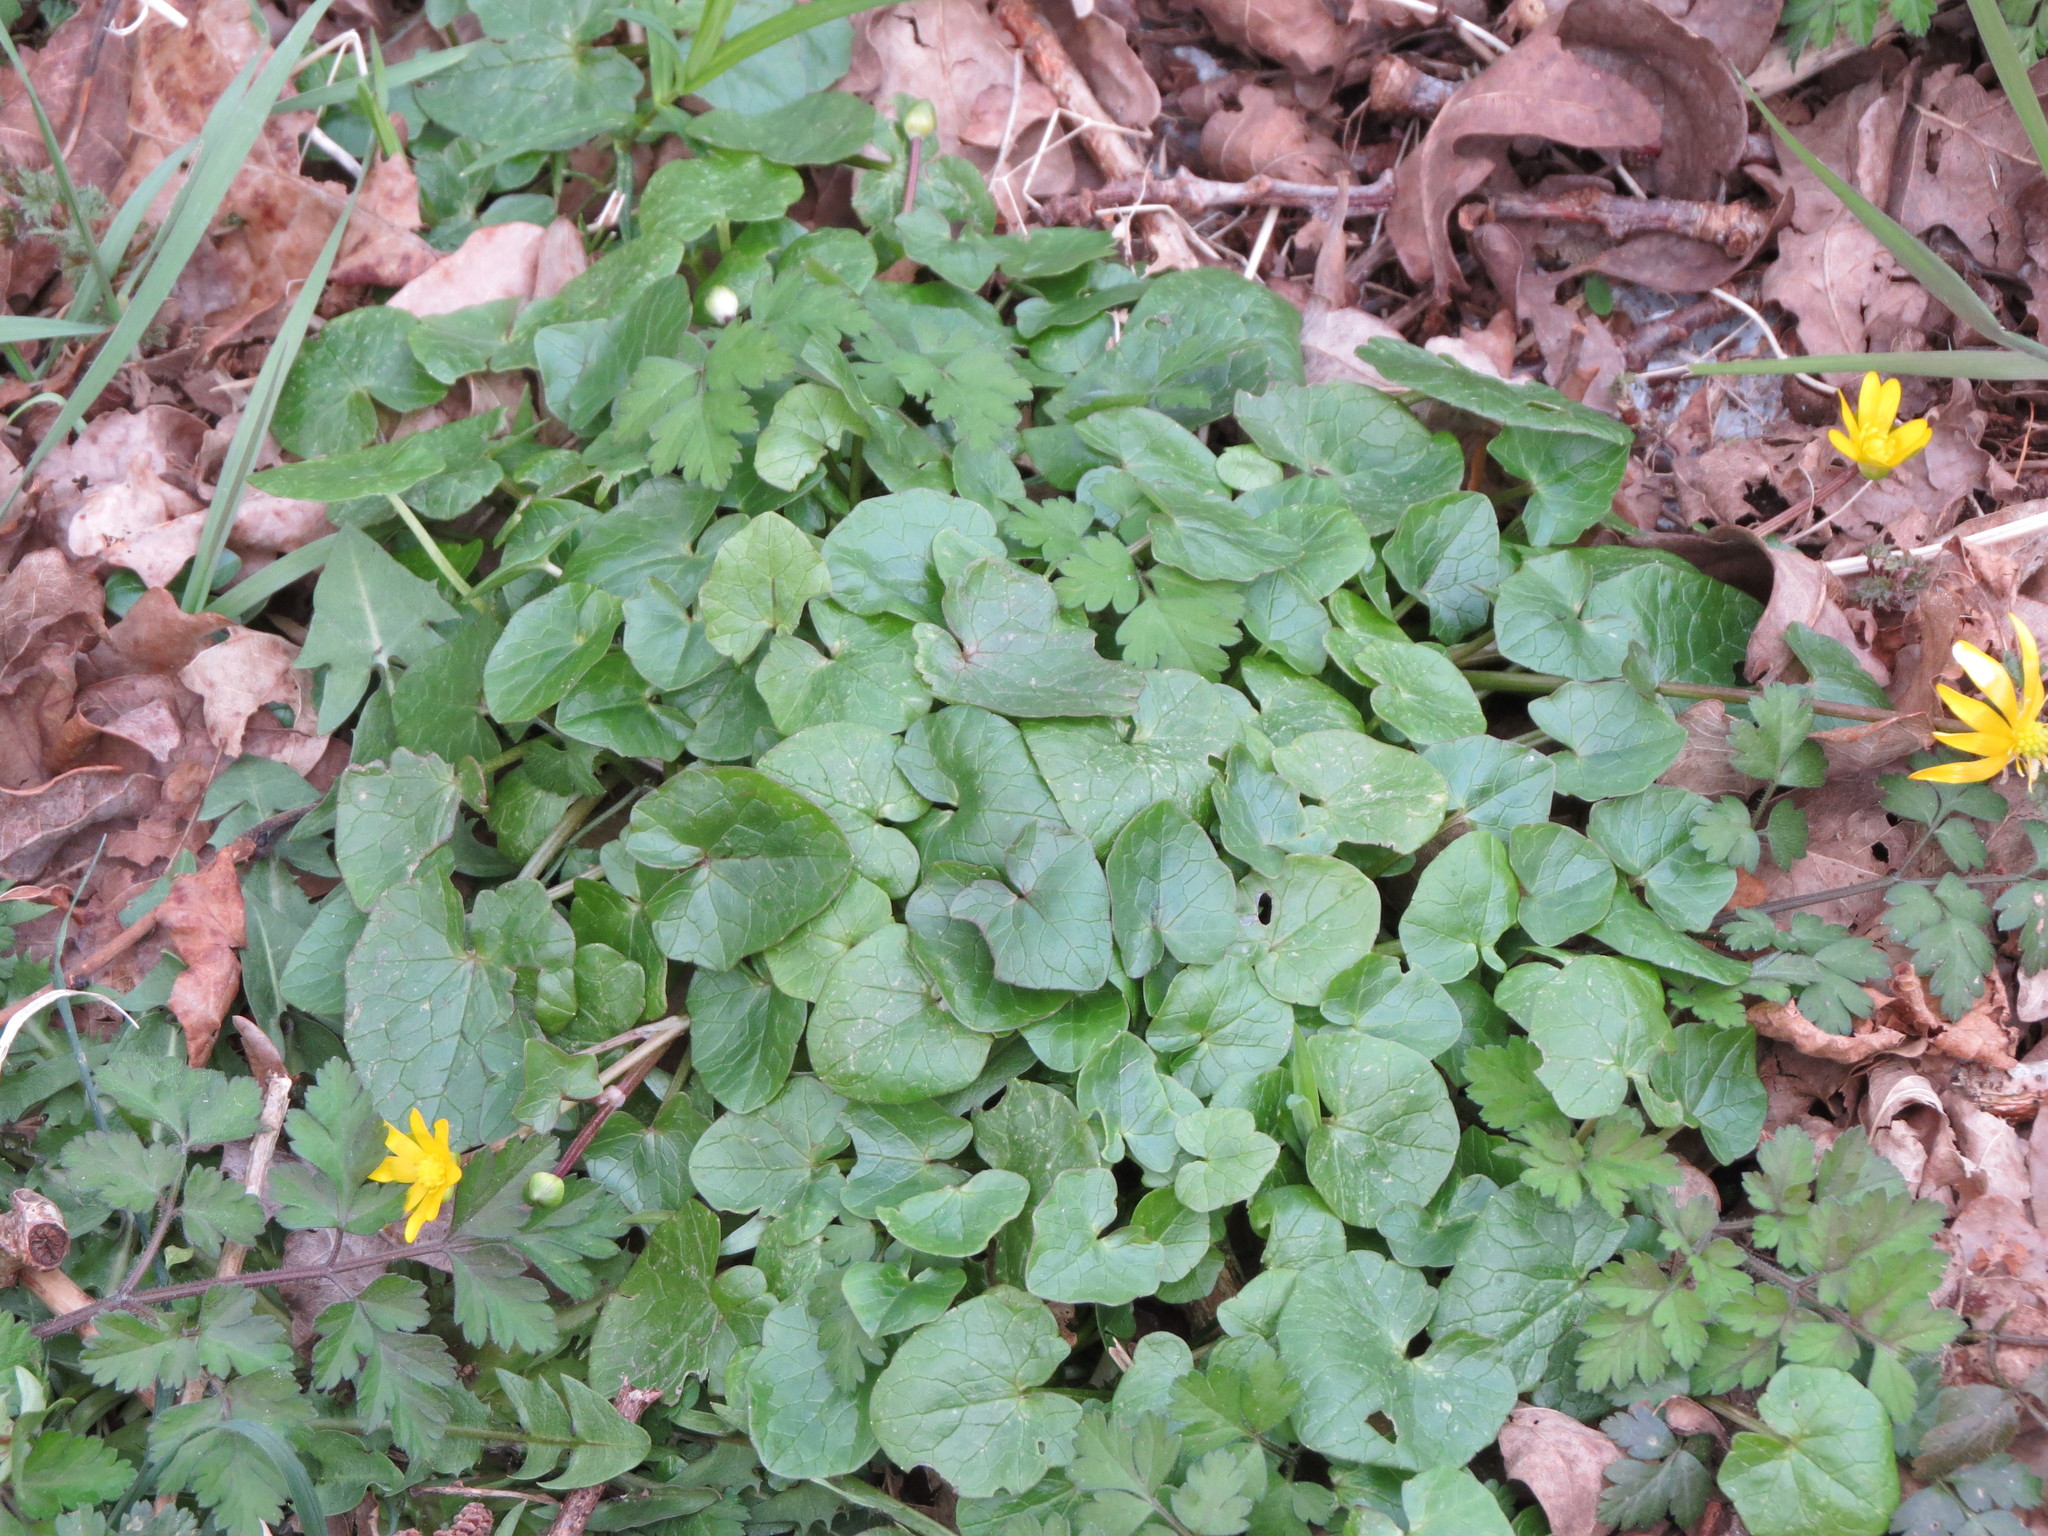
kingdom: Plantae
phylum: Tracheophyta
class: Magnoliopsida
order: Ranunculales
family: Ranunculaceae
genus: Ficaria
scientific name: Ficaria verna
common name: Lesser celandine
